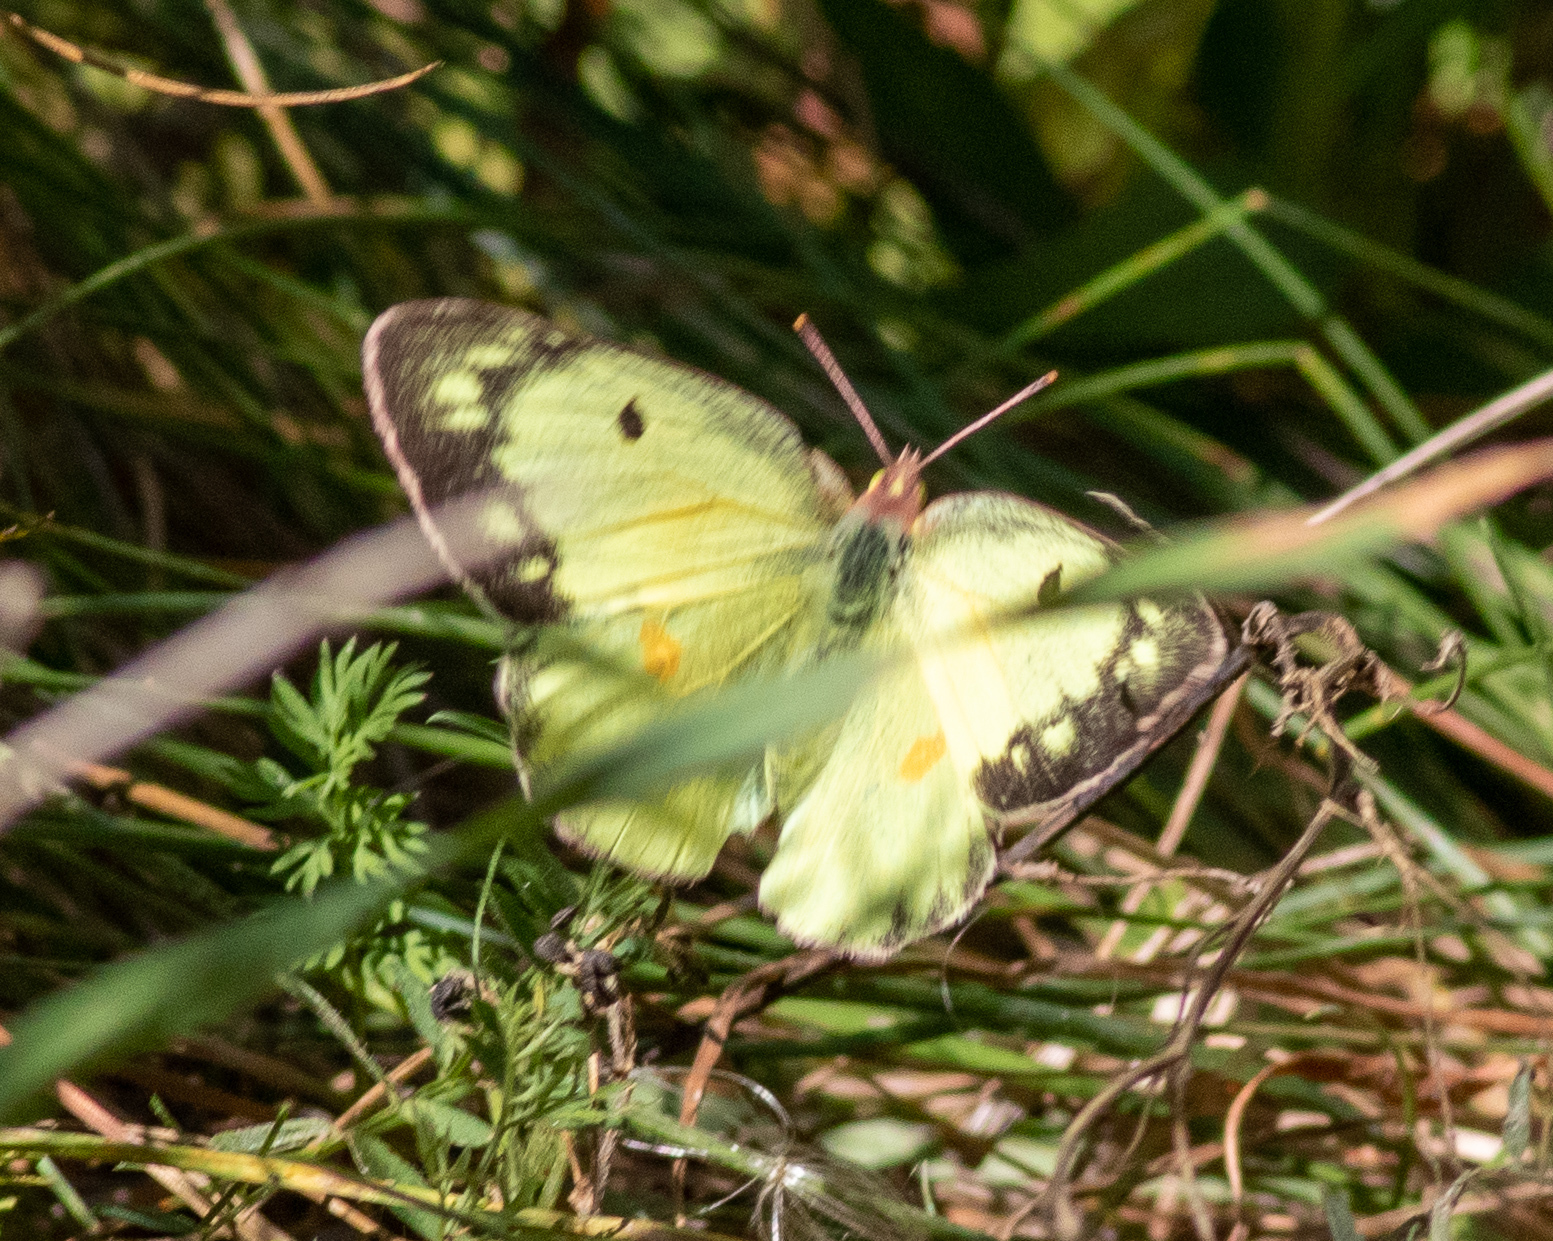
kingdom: Animalia
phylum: Arthropoda
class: Insecta
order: Lepidoptera
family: Pieridae
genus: Colias
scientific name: Colias philodice
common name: Clouded sulphur
